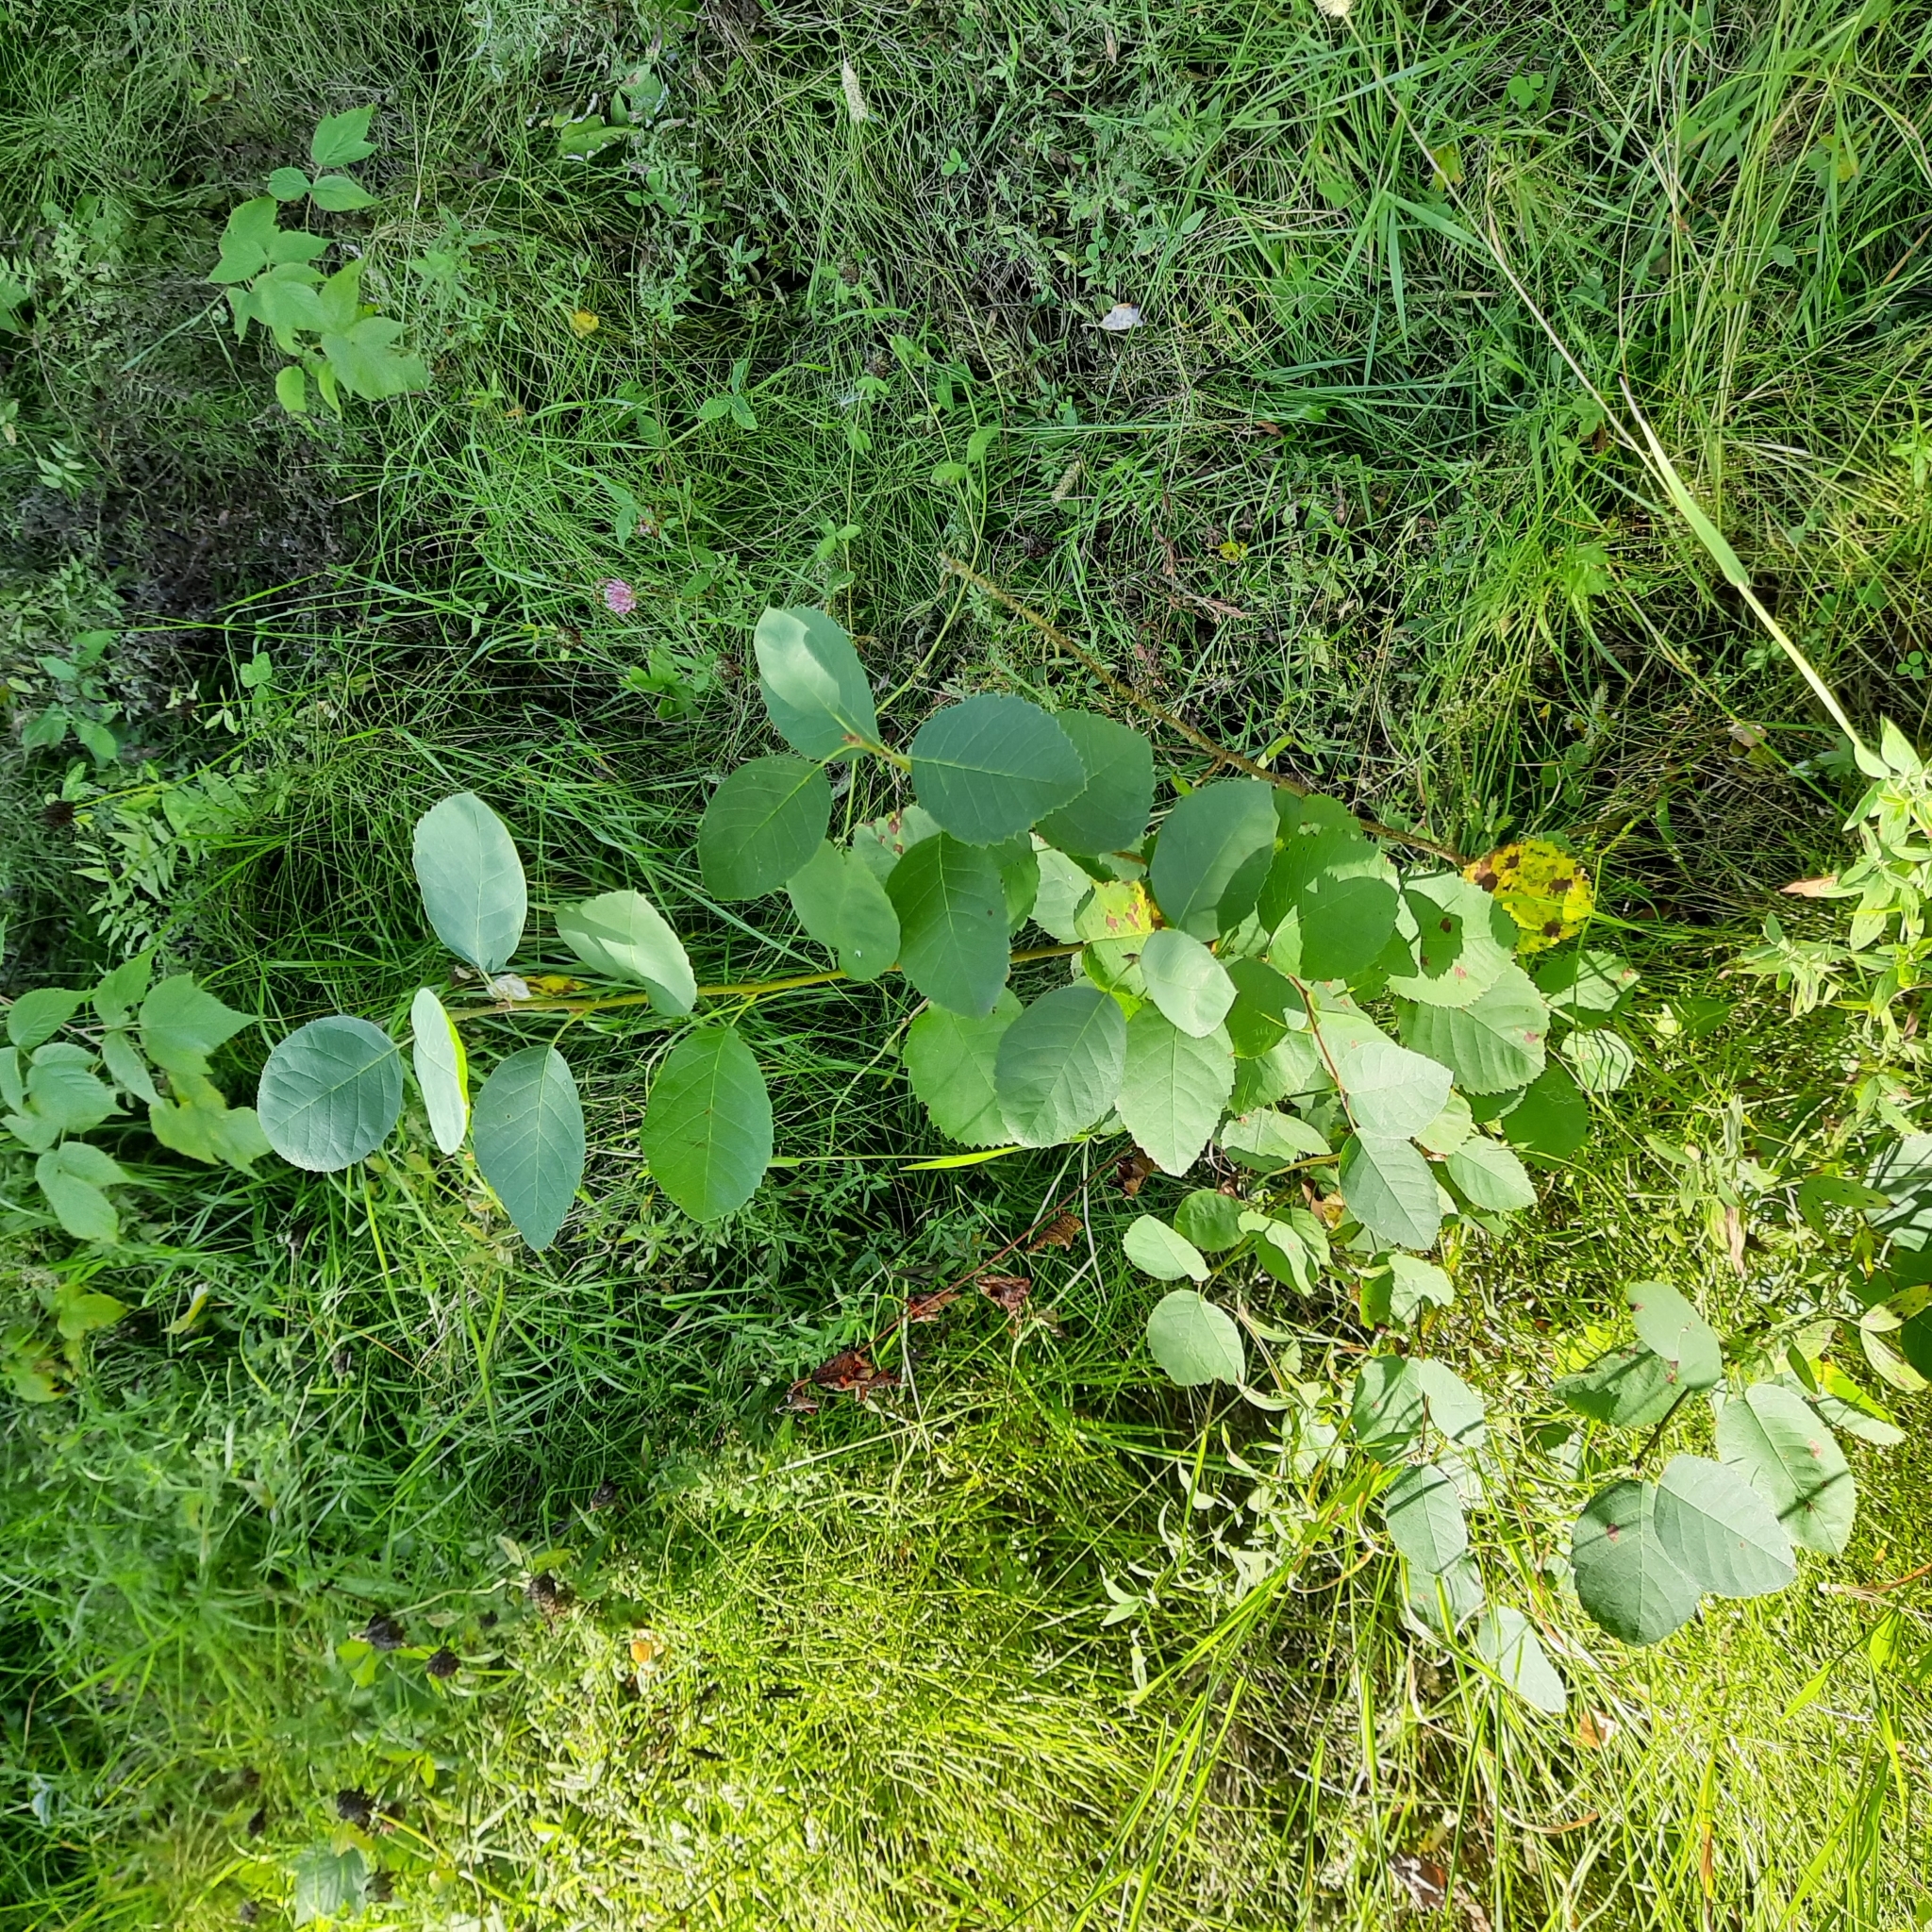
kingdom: Plantae
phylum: Tracheophyta
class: Magnoliopsida
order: Rosales
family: Rosaceae
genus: Amelanchier
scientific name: Amelanchier
